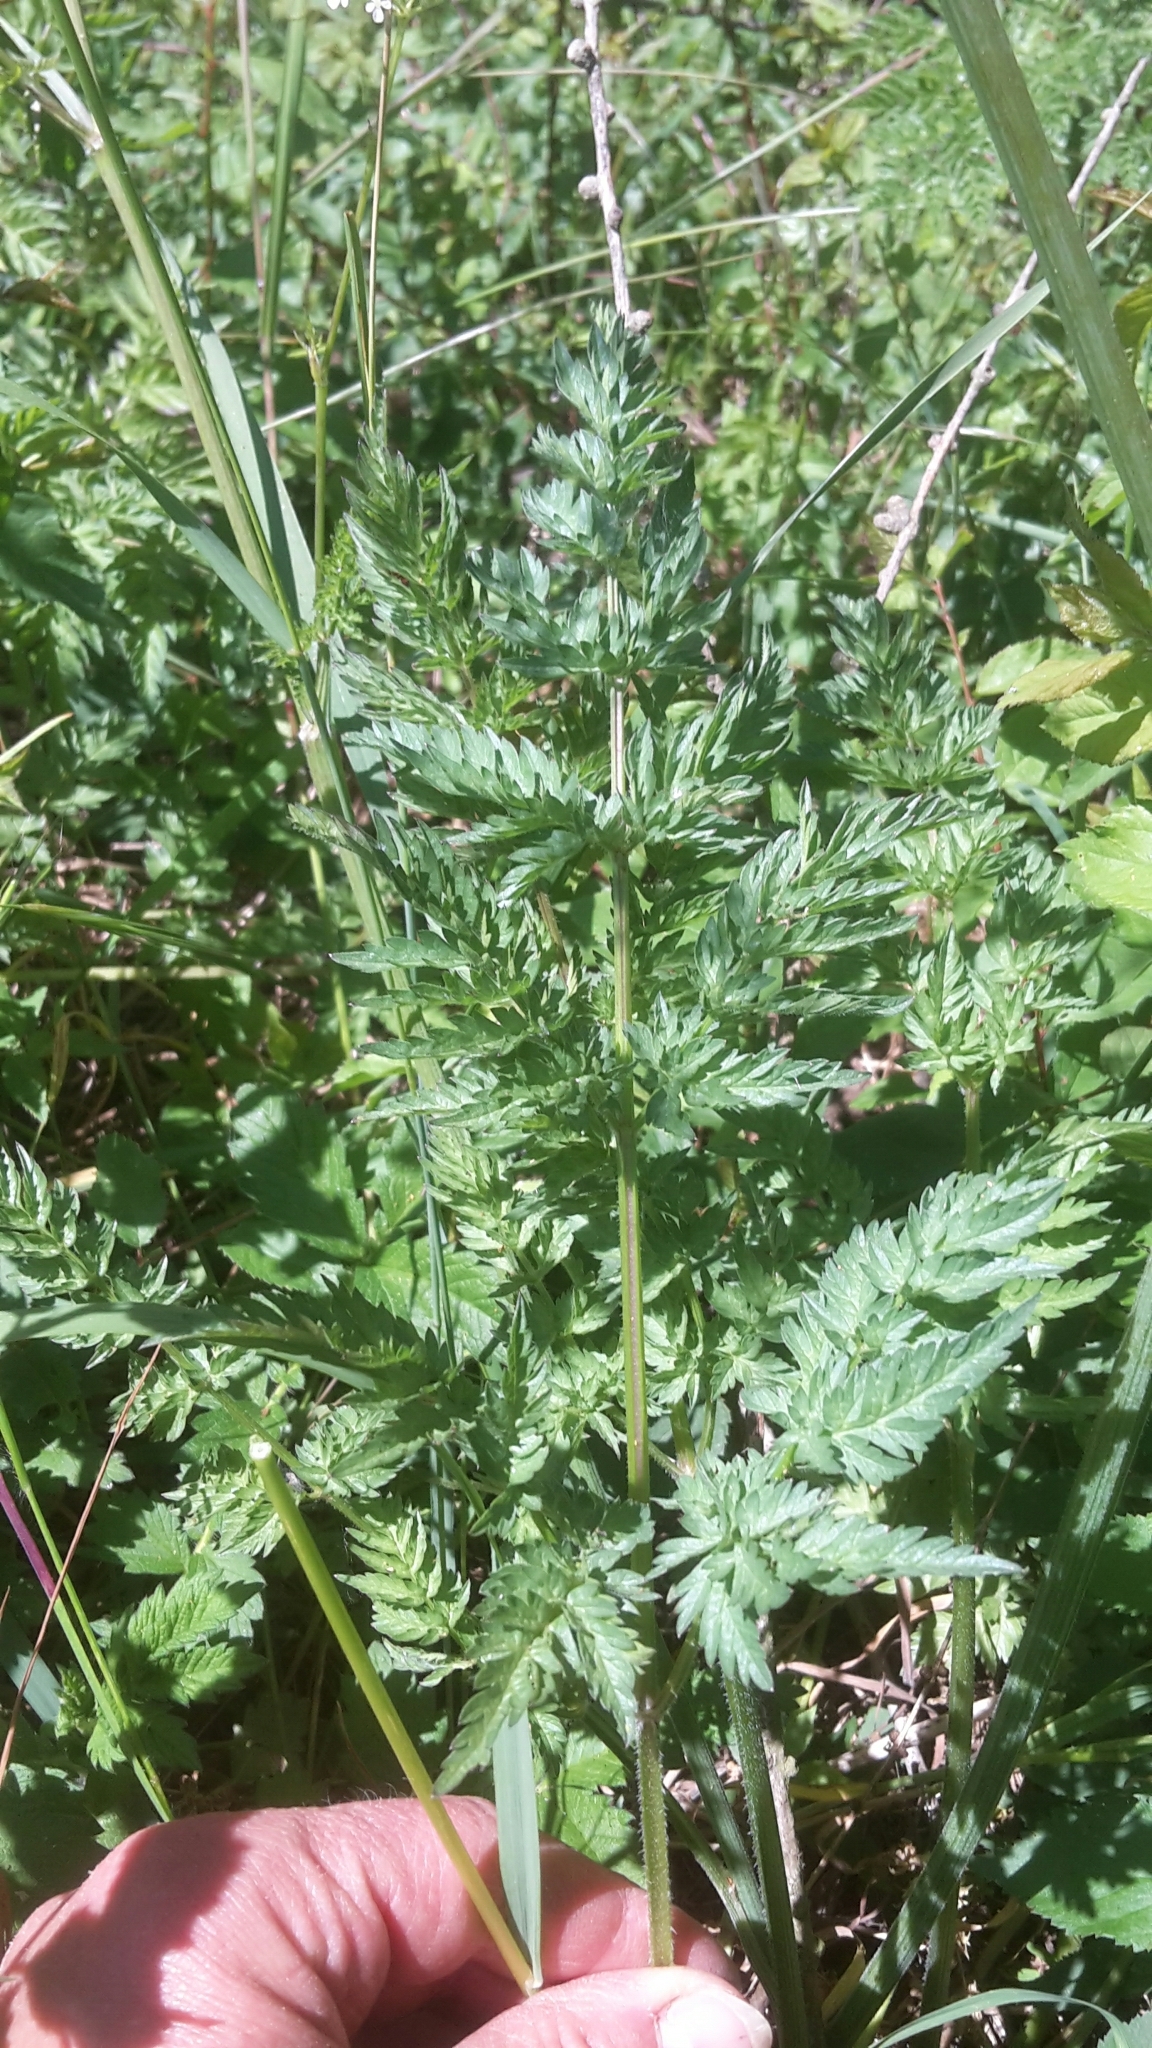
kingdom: Plantae
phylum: Tracheophyta
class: Magnoliopsida
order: Apiales
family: Apiaceae
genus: Anthriscus
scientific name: Anthriscus sylvestris
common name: Cow parsley
